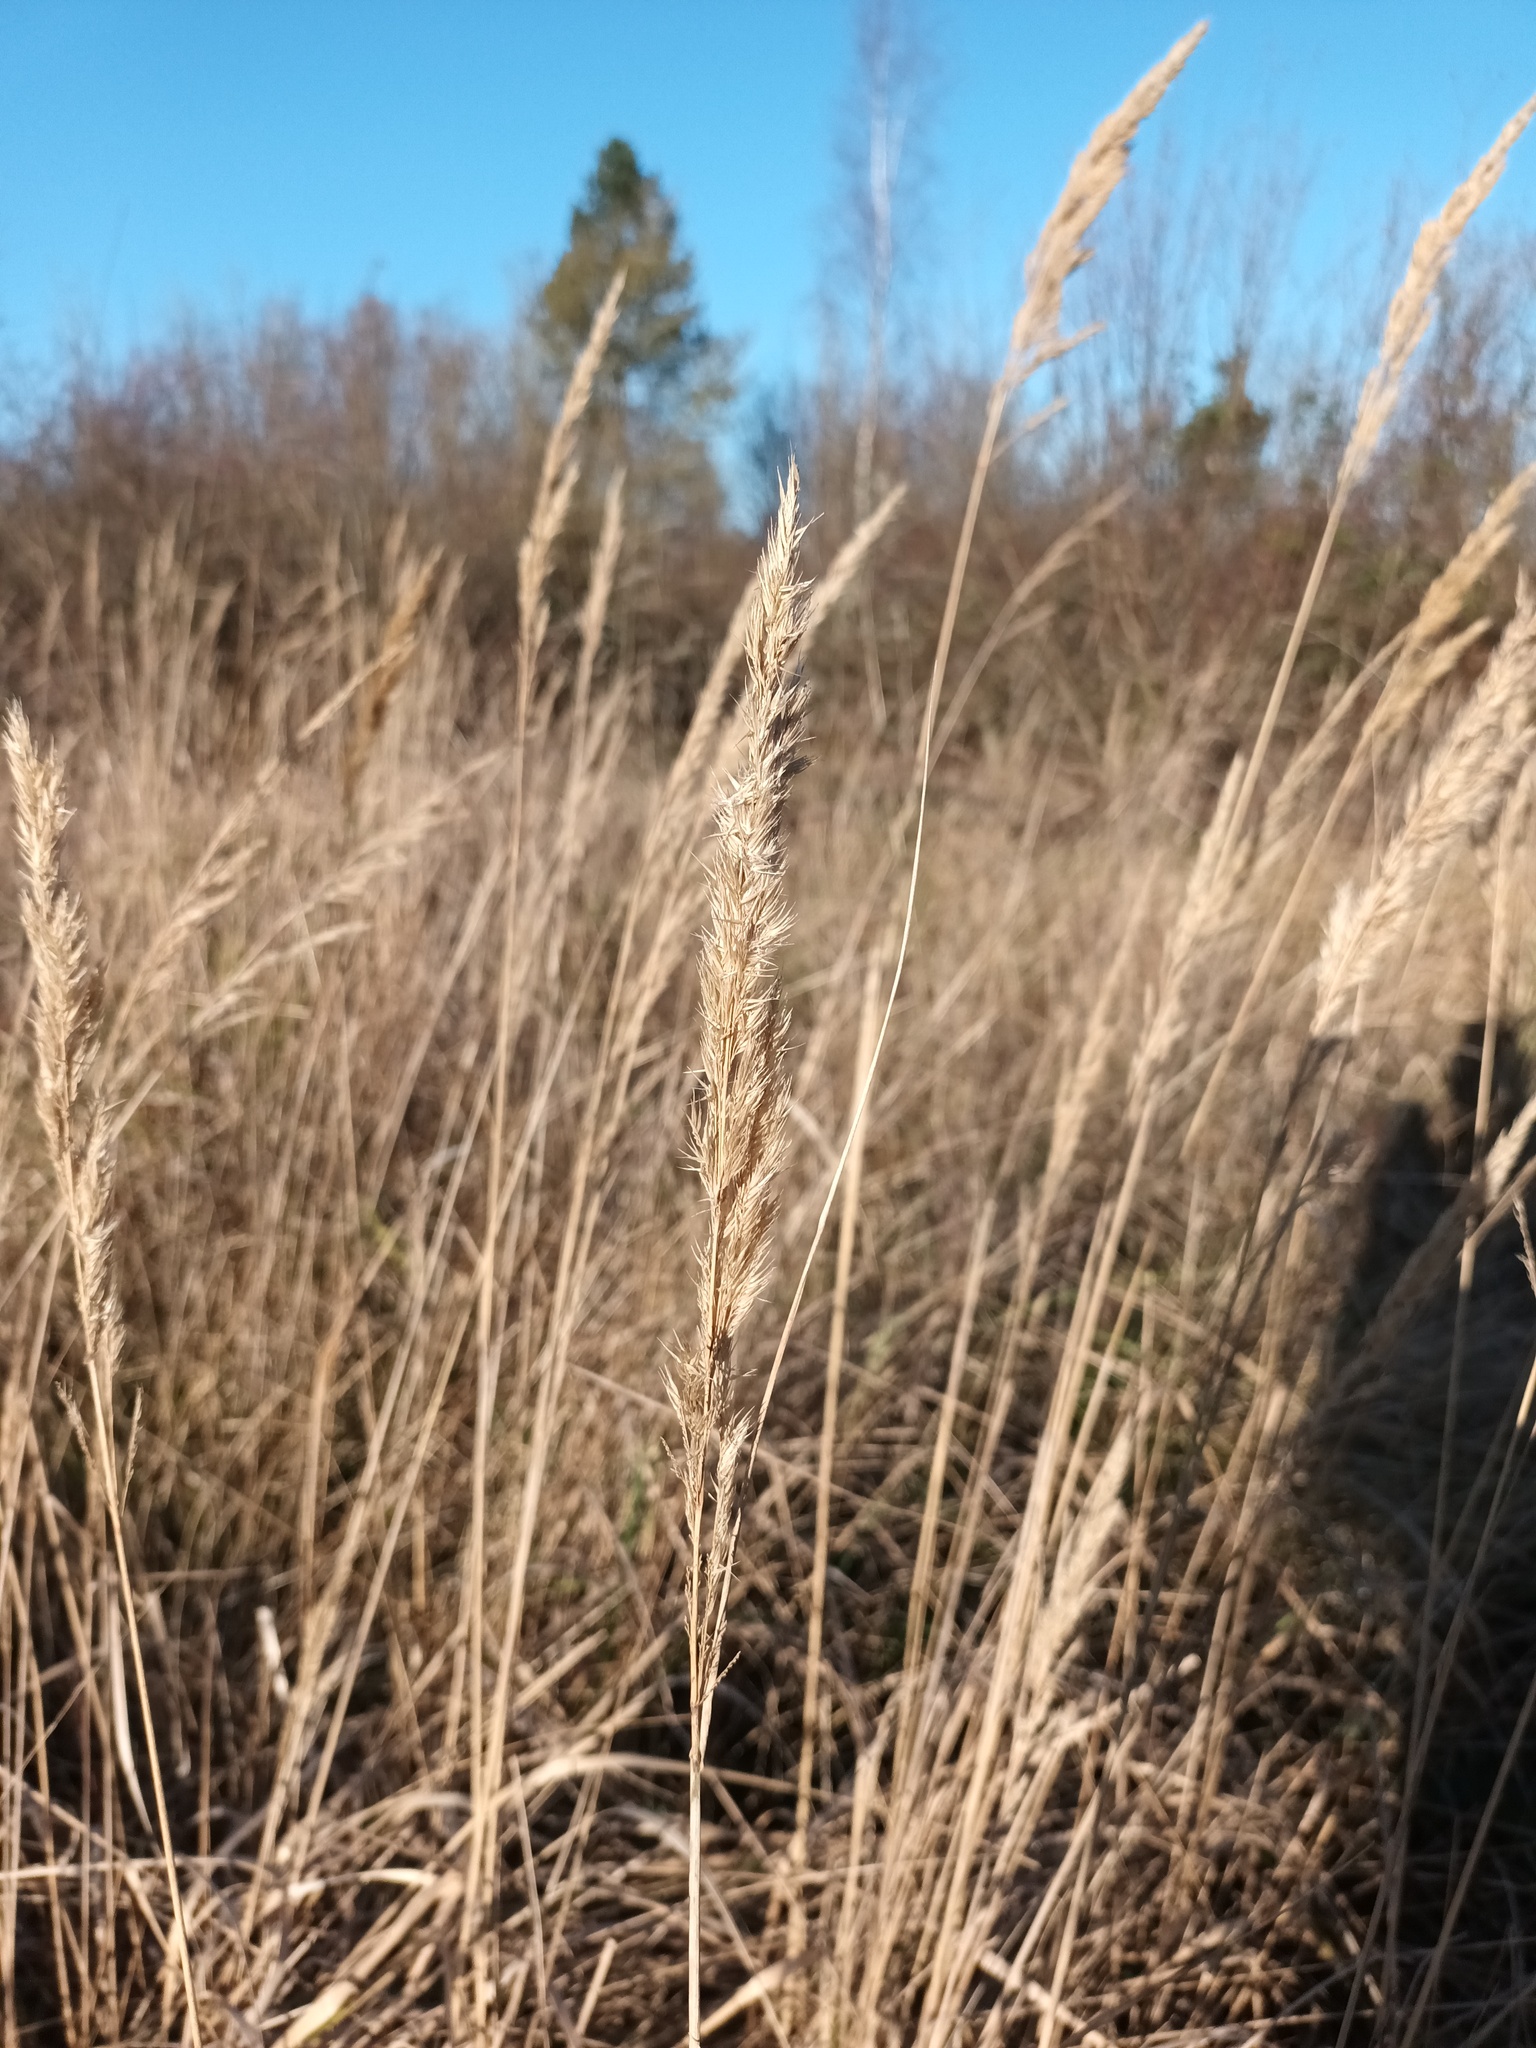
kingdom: Plantae
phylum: Tracheophyta
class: Liliopsida
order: Poales
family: Poaceae
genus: Calamagrostis
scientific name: Calamagrostis epigejos
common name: Wood small-reed
